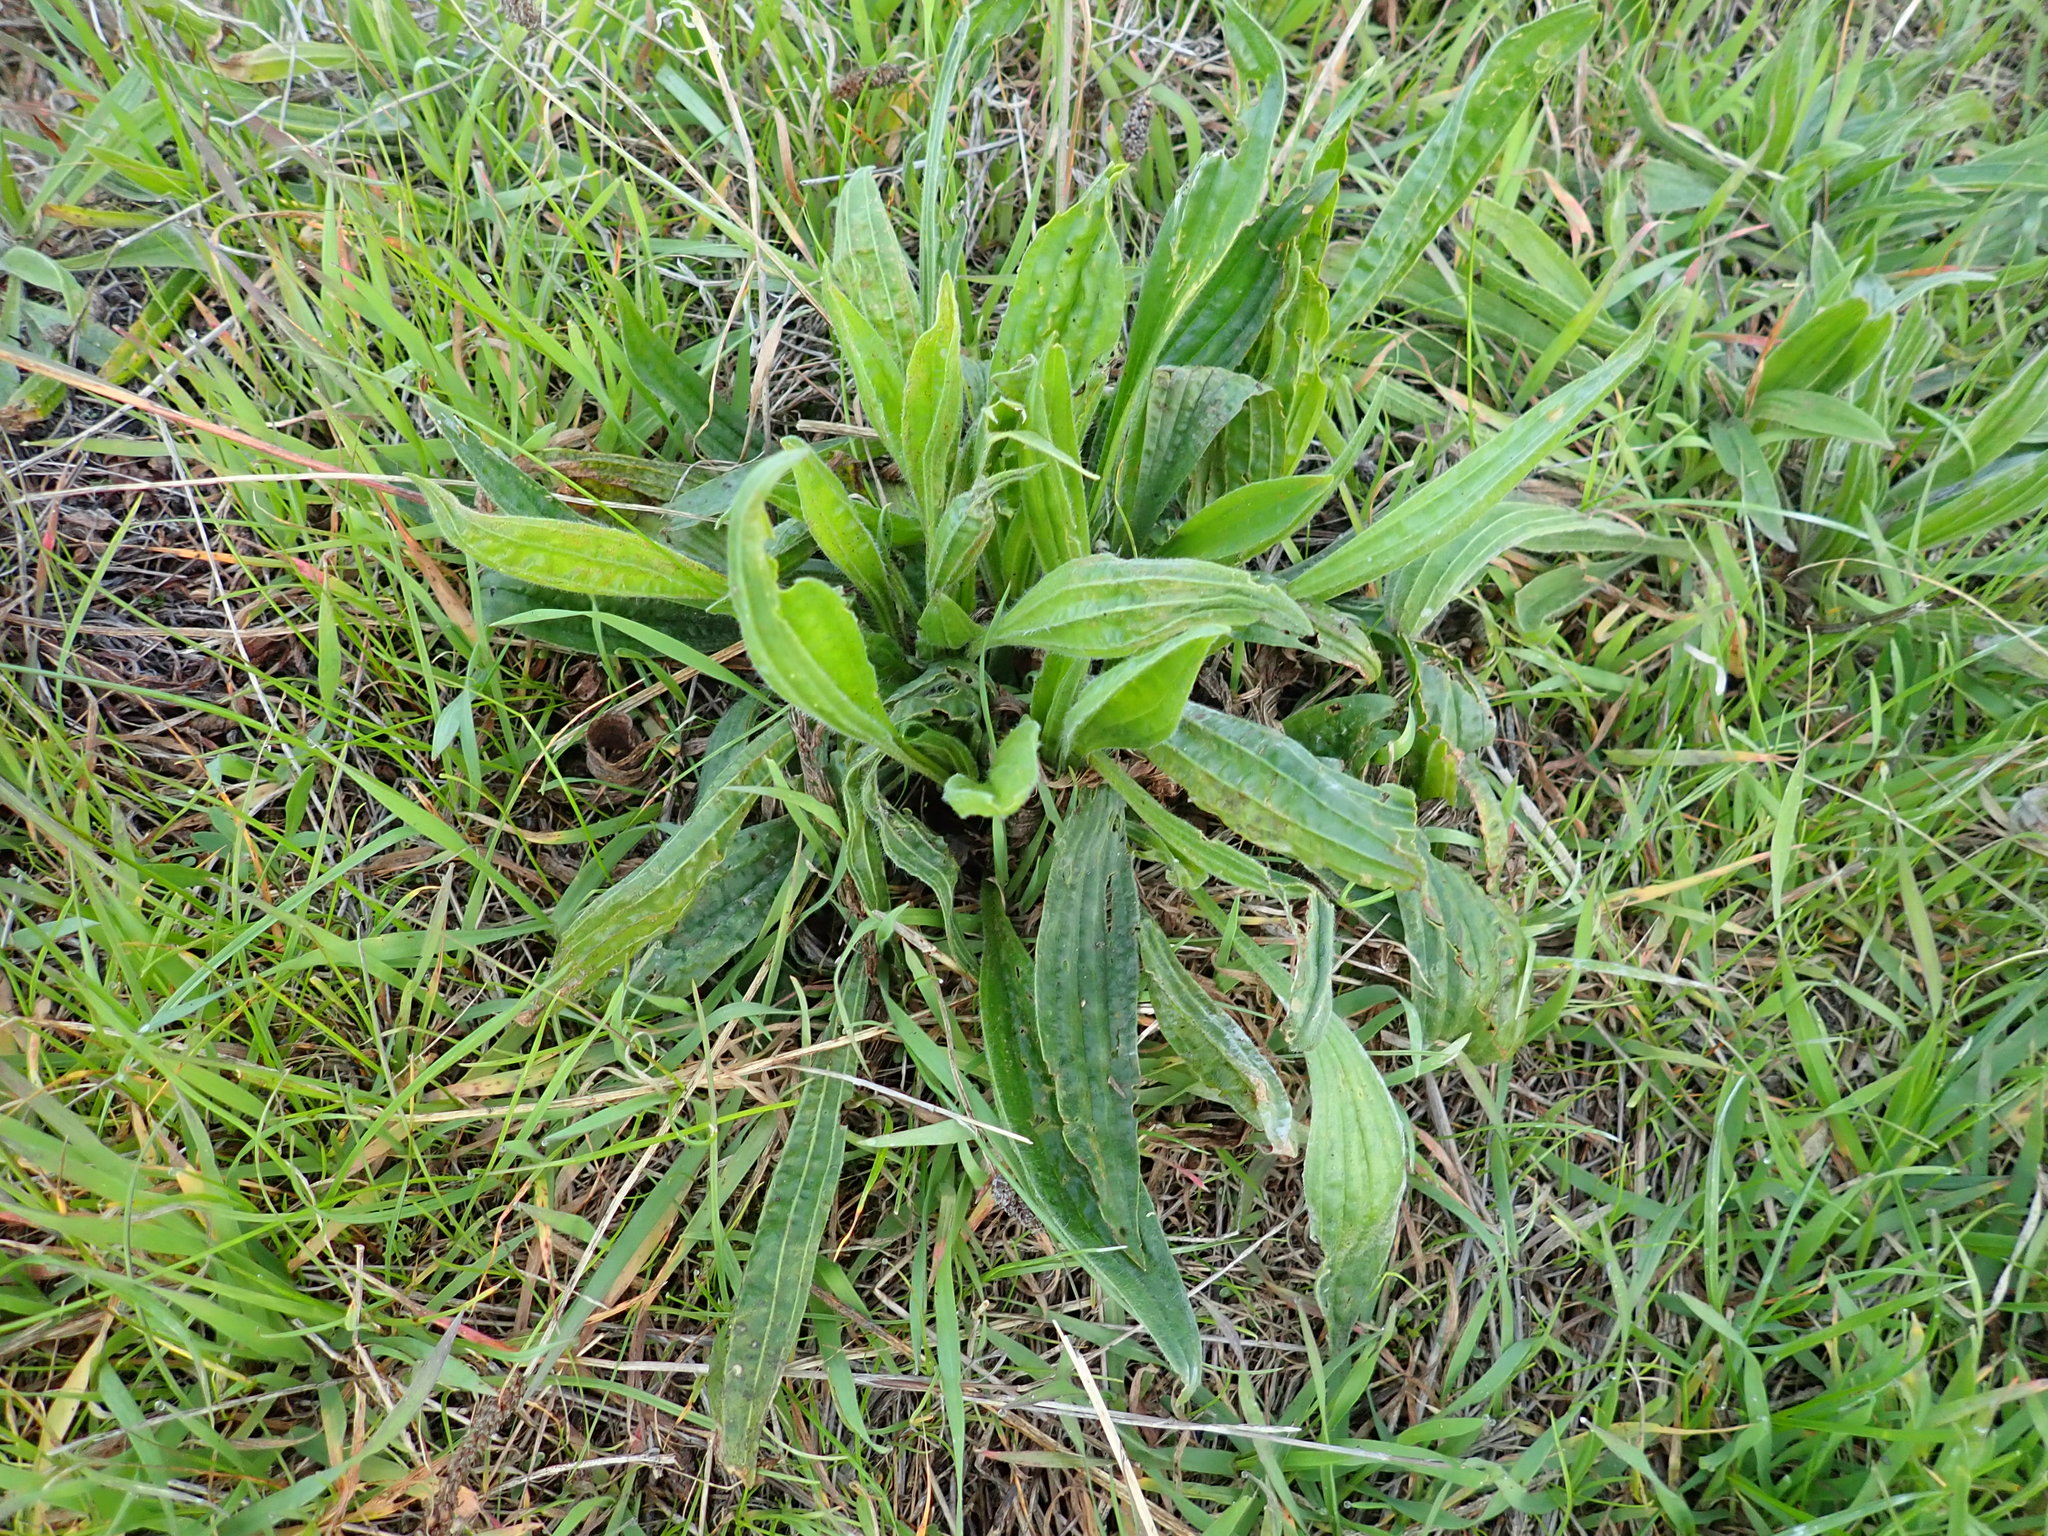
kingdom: Plantae
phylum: Tracheophyta
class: Magnoliopsida
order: Lamiales
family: Plantaginaceae
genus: Plantago
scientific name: Plantago lanceolata
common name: Ribwort plantain
